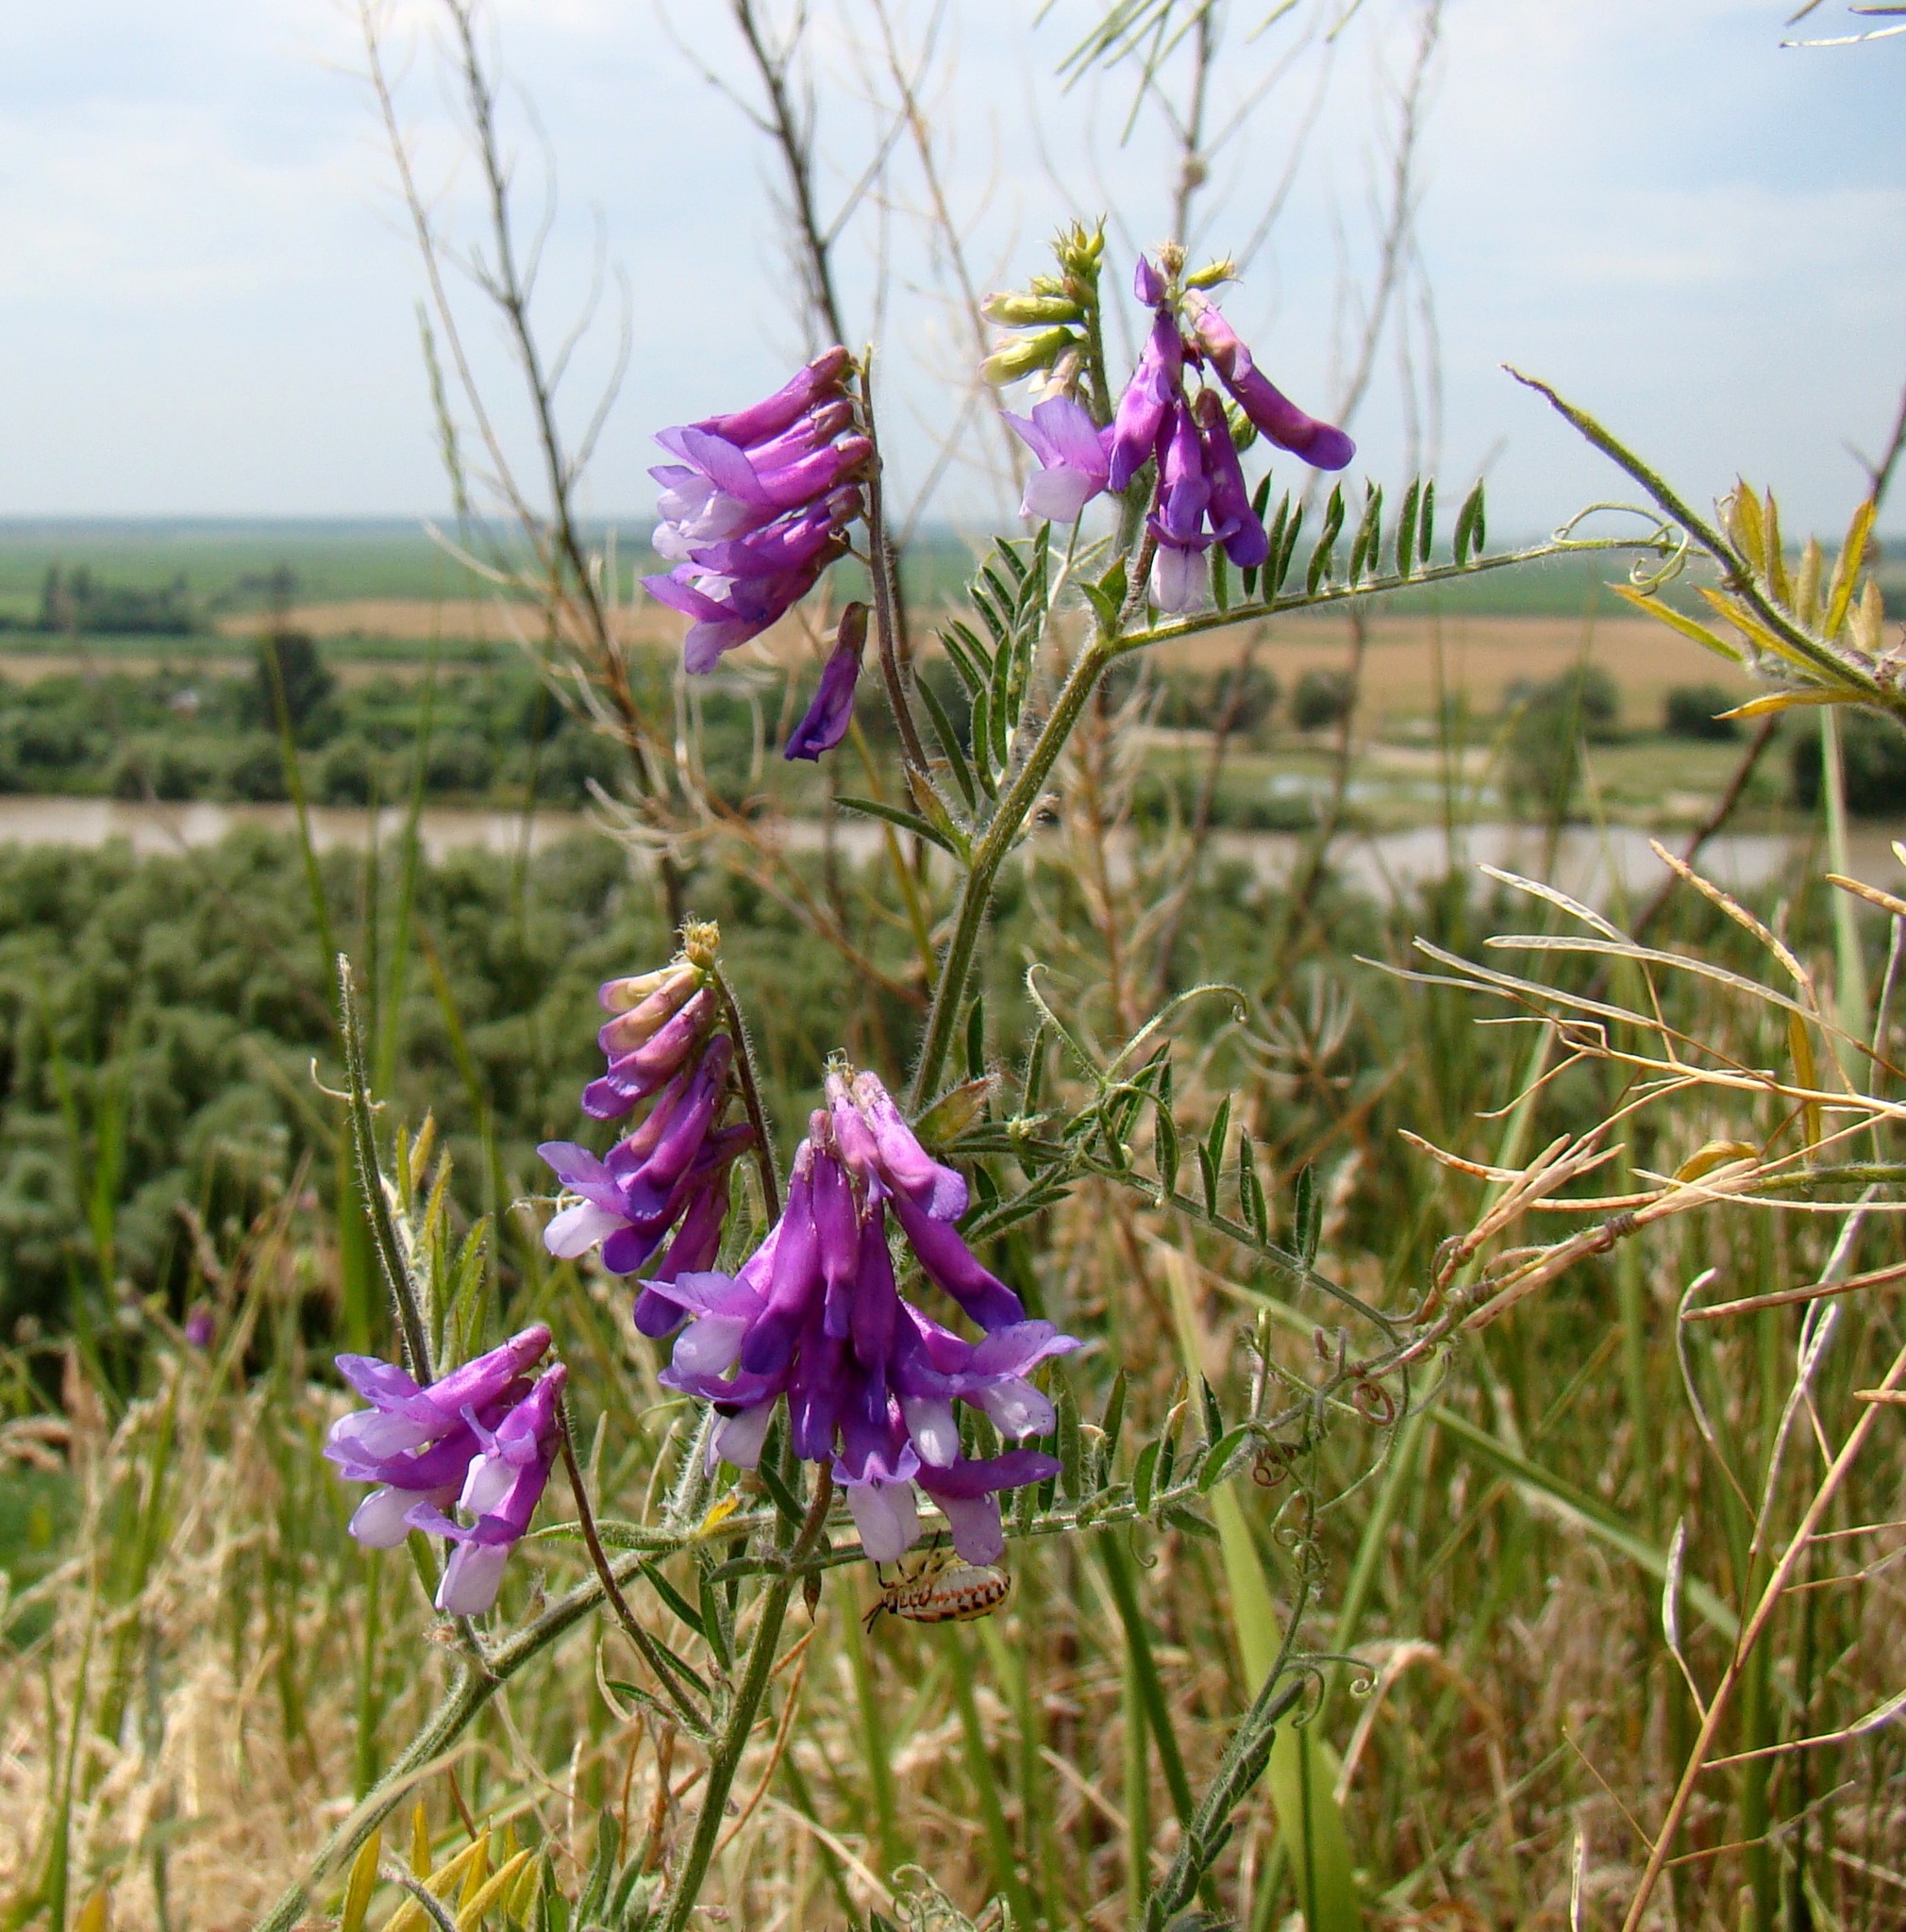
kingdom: Plantae
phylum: Tracheophyta
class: Magnoliopsida
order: Fabales
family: Fabaceae
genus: Vicia
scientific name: Vicia villosa
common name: Fodder vetch
